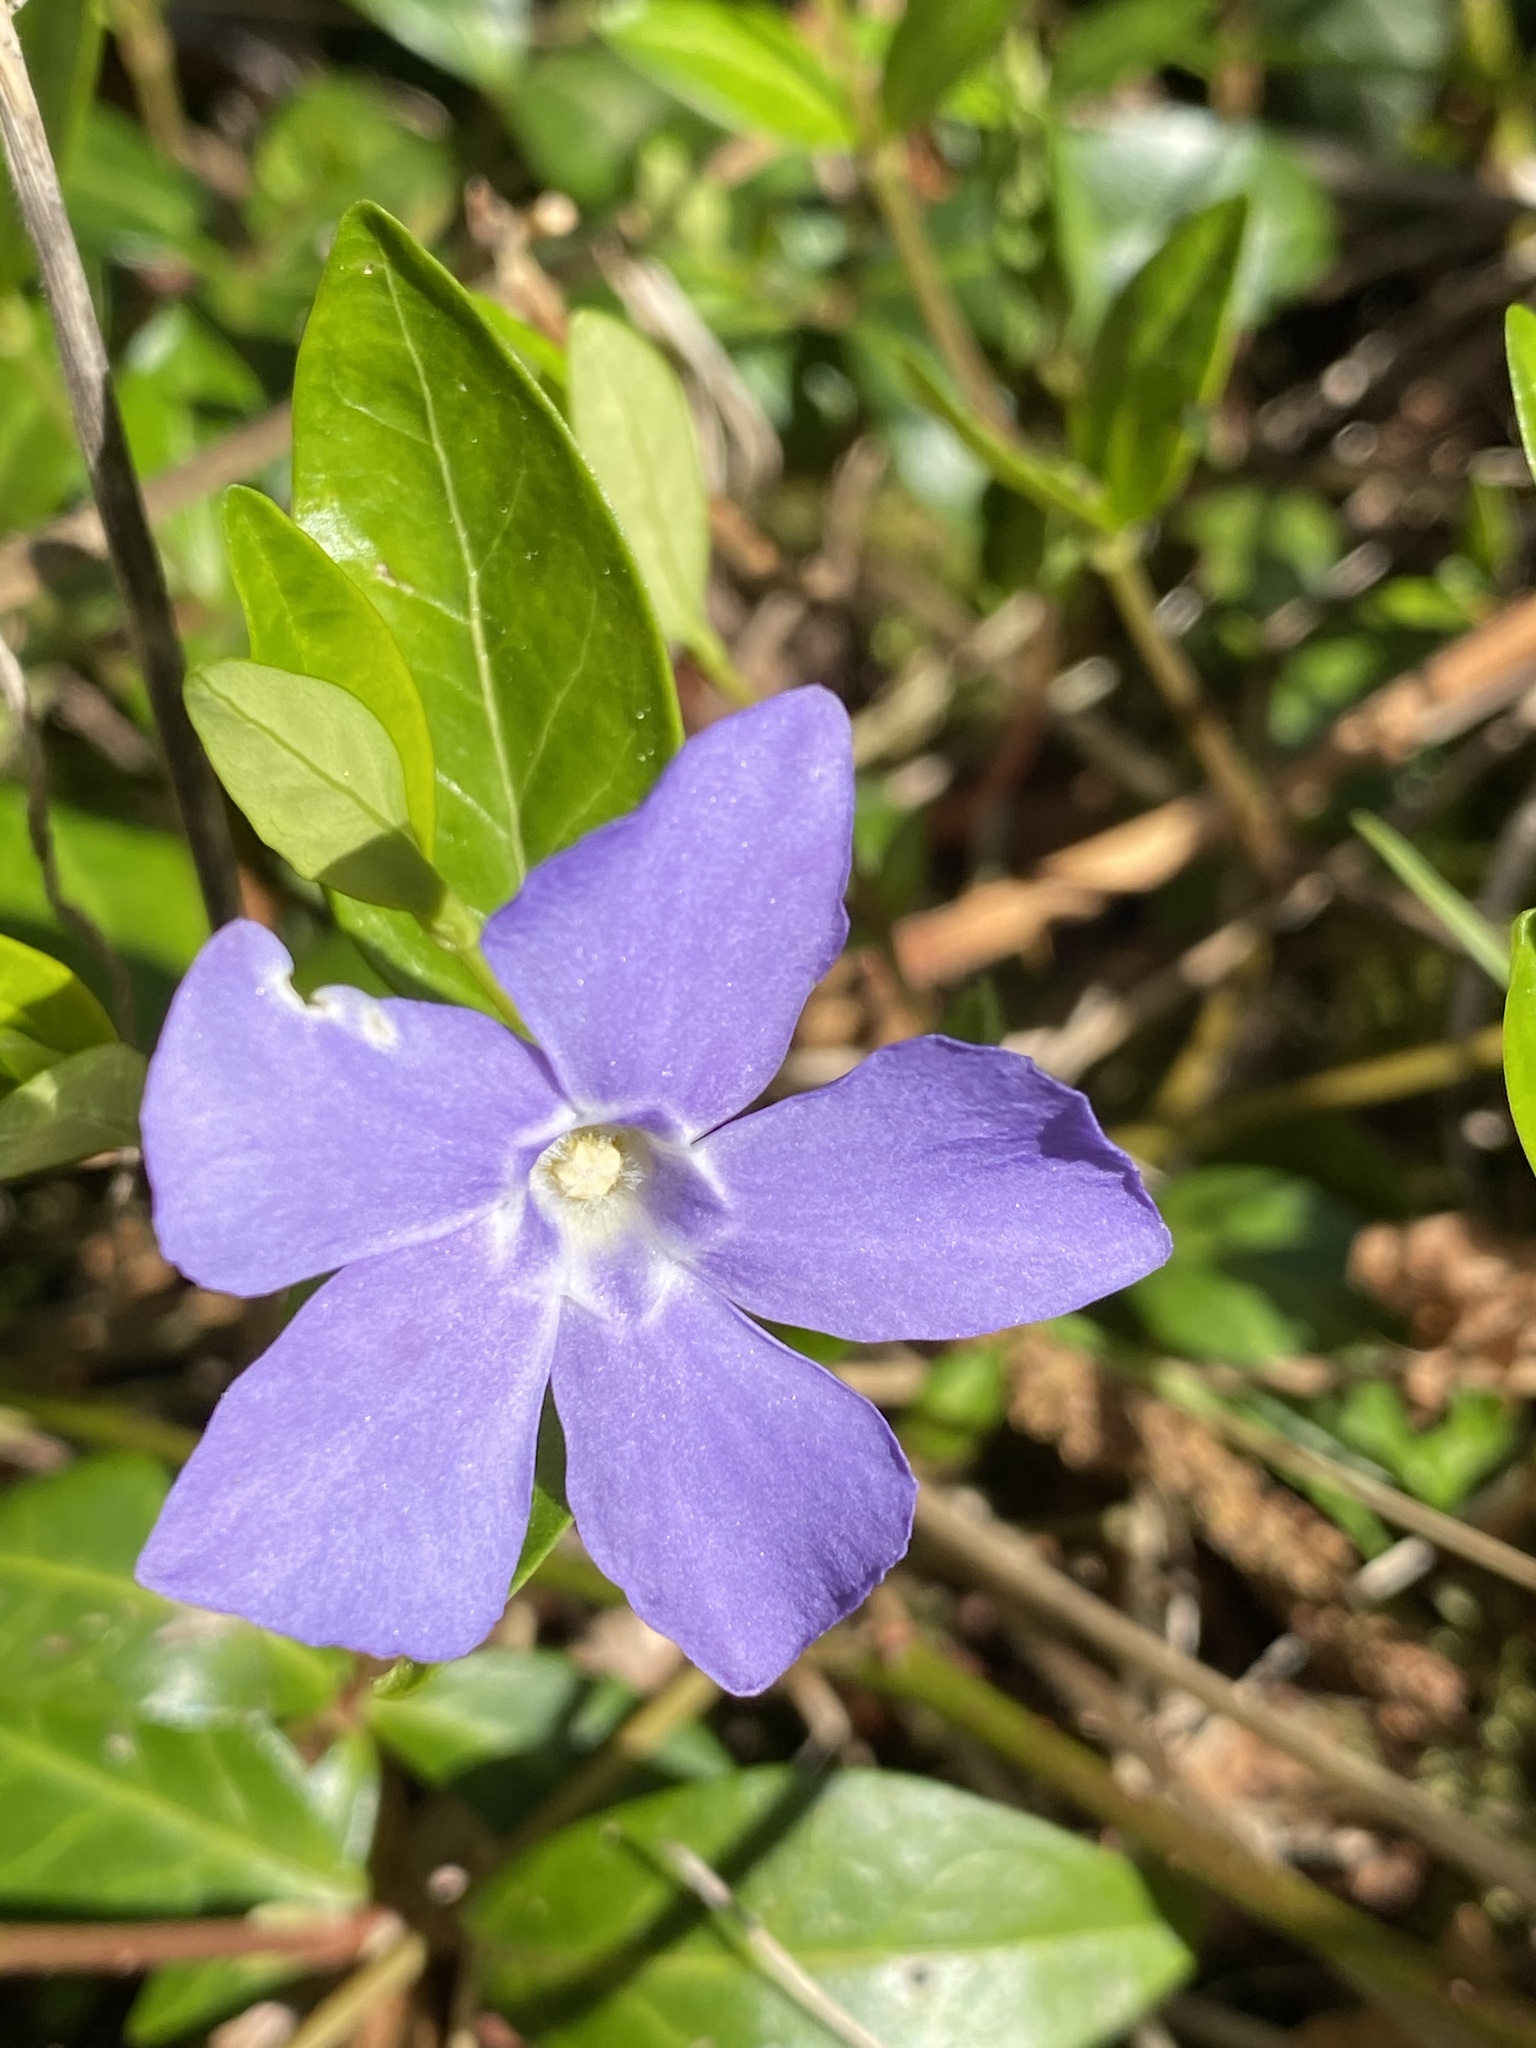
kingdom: Plantae
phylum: Tracheophyta
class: Magnoliopsida
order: Gentianales
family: Apocynaceae
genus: Vinca
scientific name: Vinca minor
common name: Lesser periwinkle
